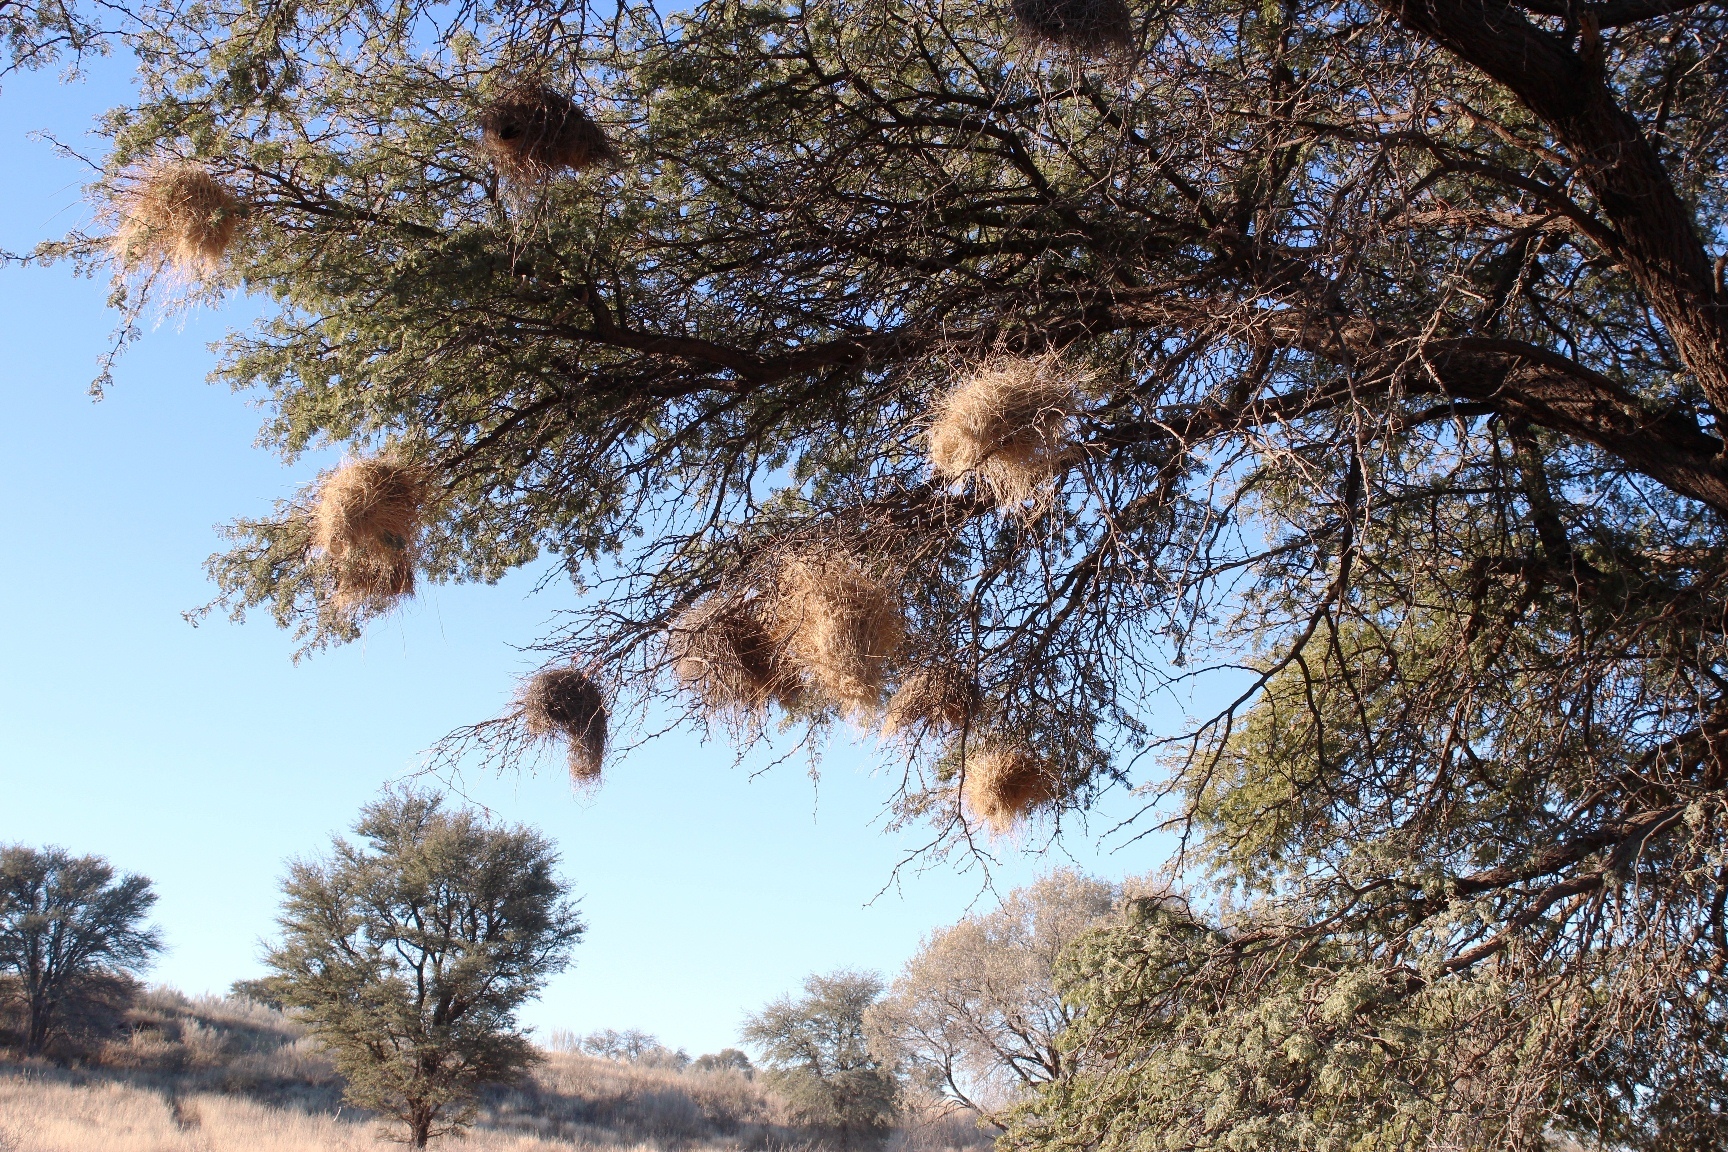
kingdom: Animalia
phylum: Chordata
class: Aves
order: Passeriformes
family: Passeridae
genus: Plocepasser
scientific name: Plocepasser mahali
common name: White-browed sparrow-weaver
